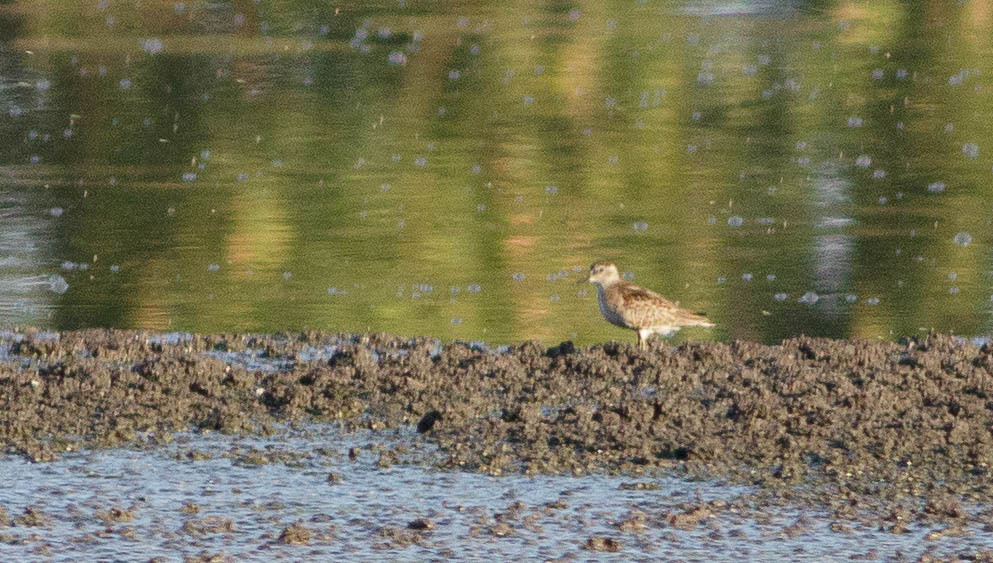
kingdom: Animalia
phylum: Chordata
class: Aves
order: Charadriiformes
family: Scolopacidae
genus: Calidris
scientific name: Calidris minutilla
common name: Least sandpiper
